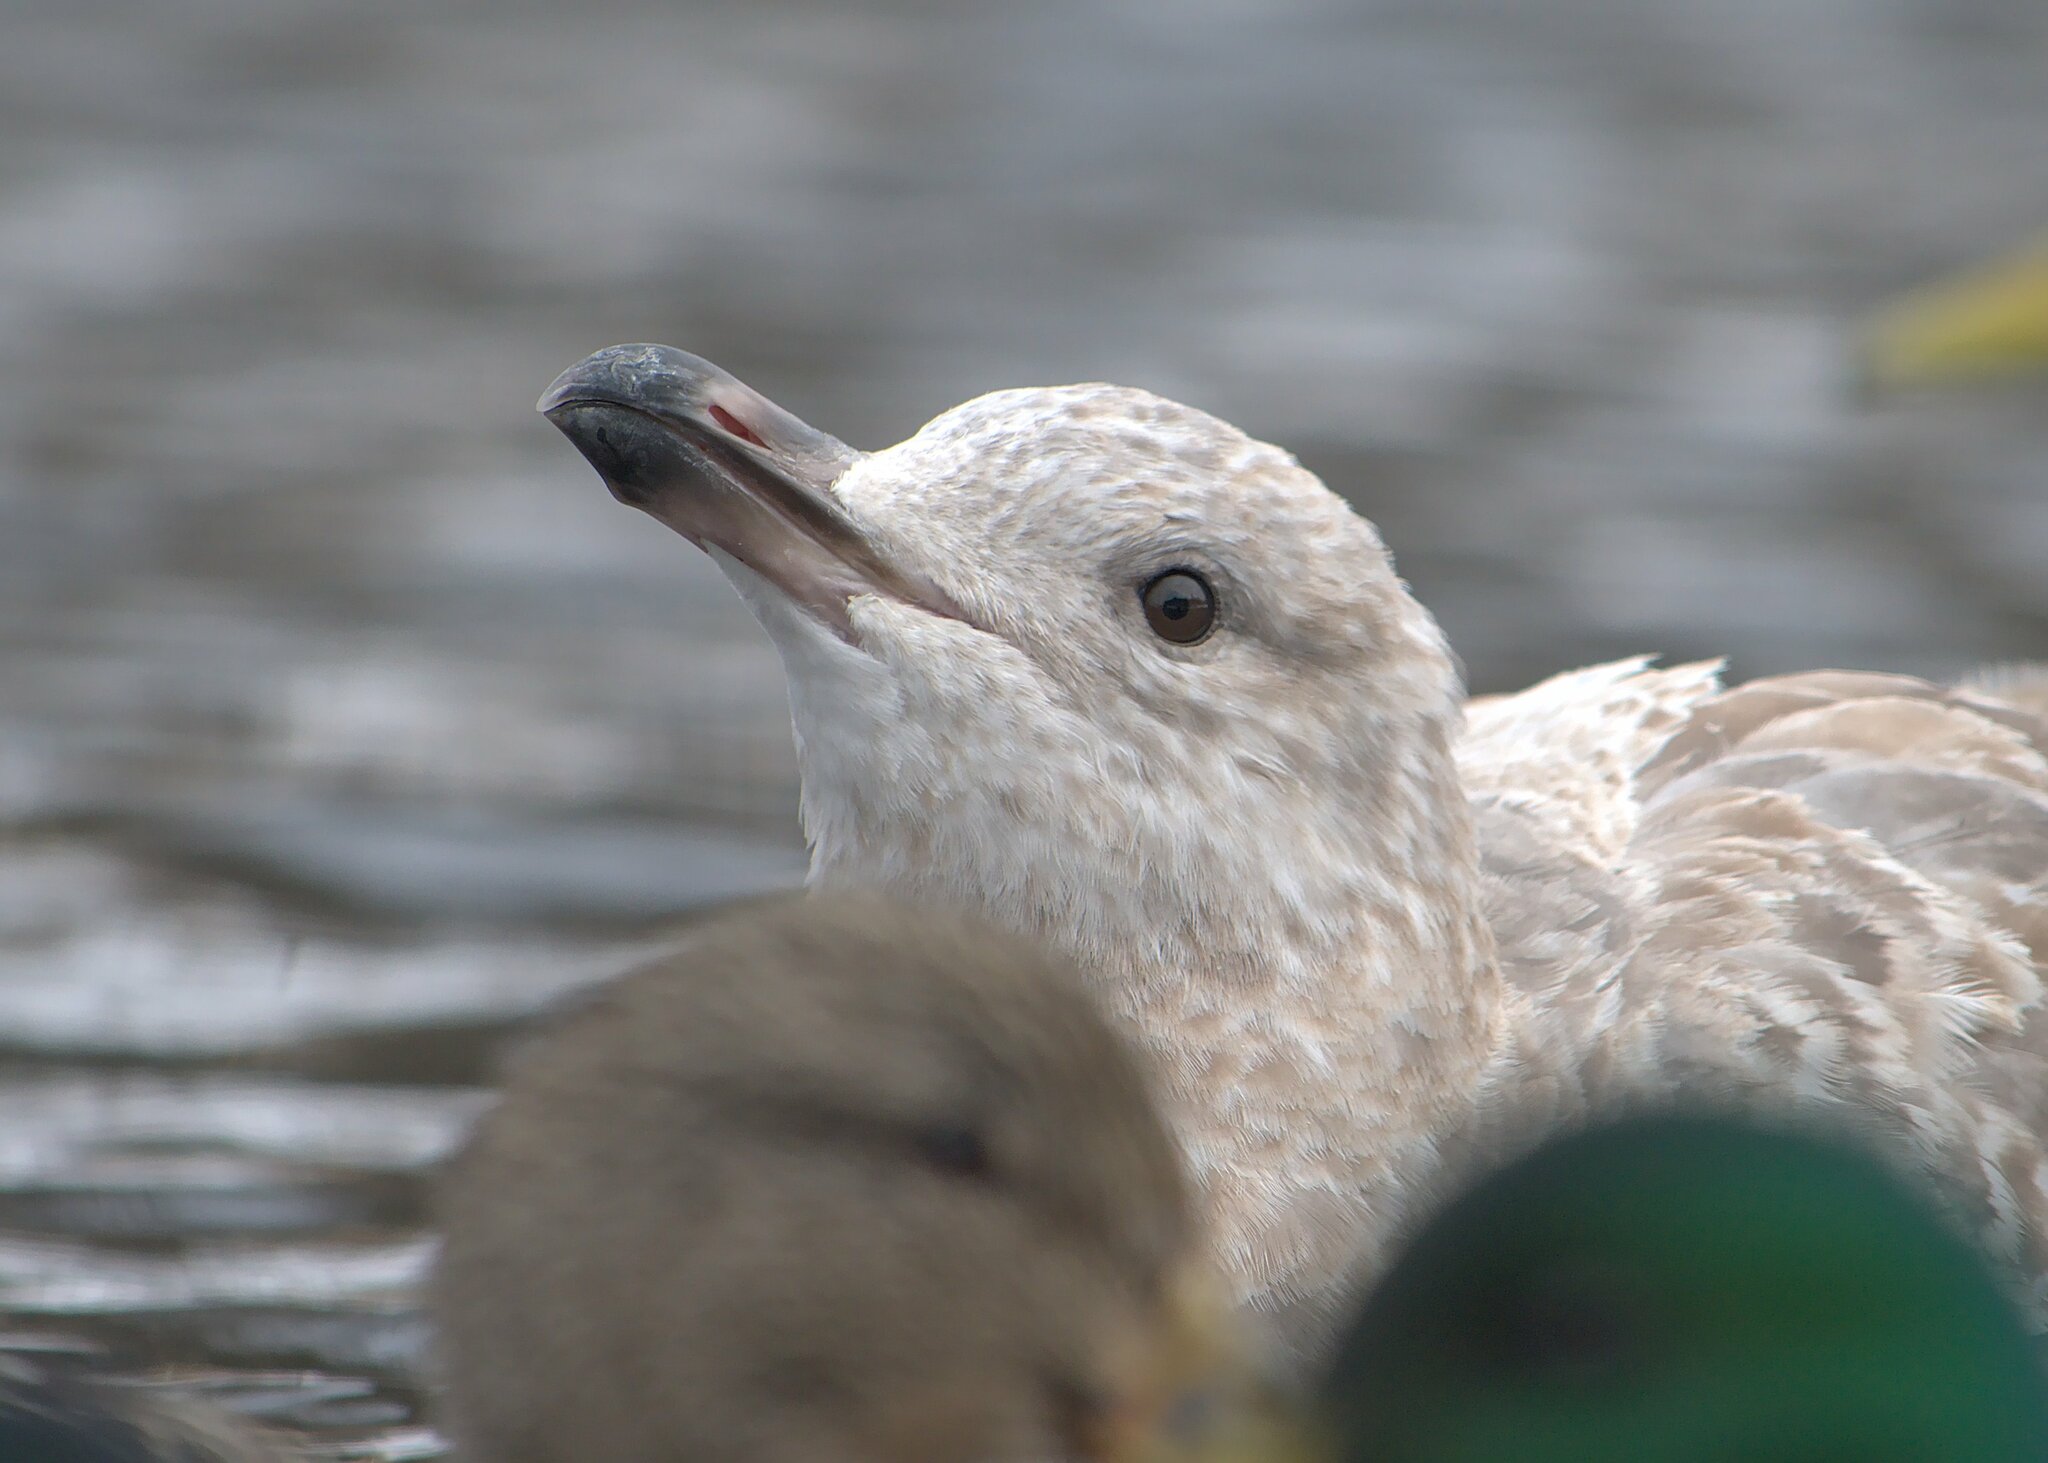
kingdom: Animalia
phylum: Chordata
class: Aves
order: Charadriiformes
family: Laridae
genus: Larus
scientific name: Larus argentatus
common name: Herring gull
